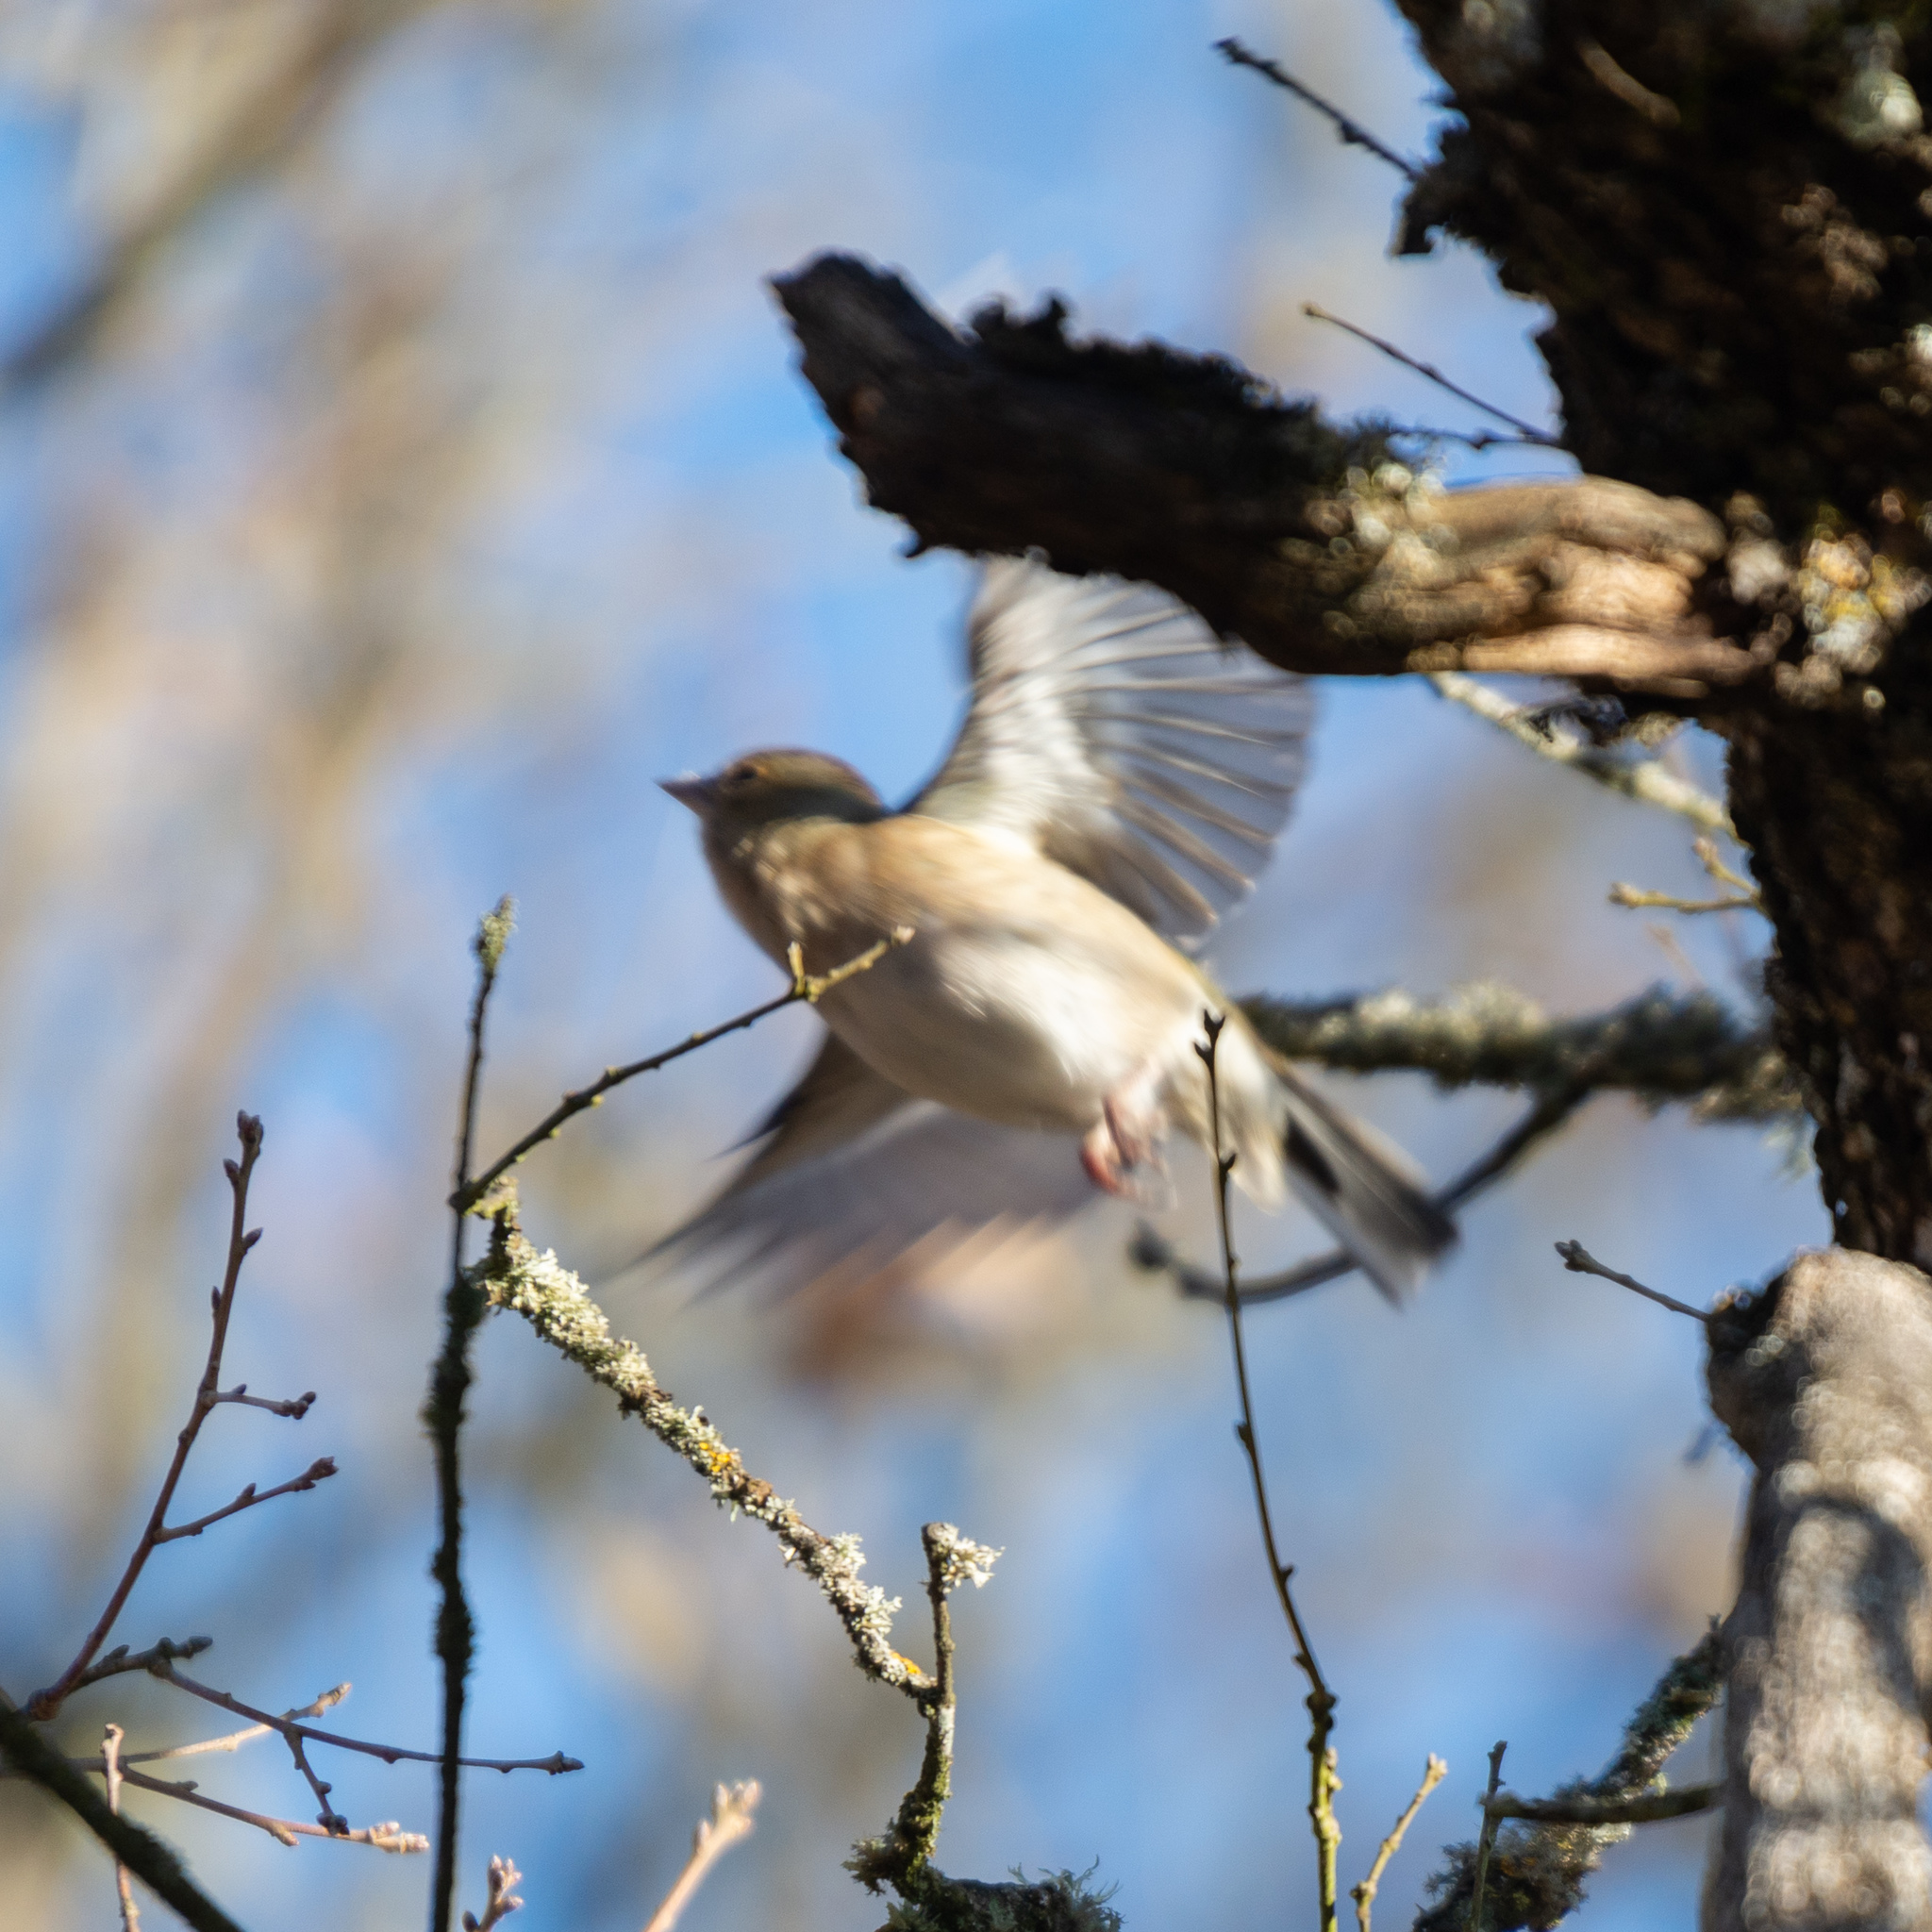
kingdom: Animalia
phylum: Chordata
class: Aves
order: Passeriformes
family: Fringillidae
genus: Fringilla
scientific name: Fringilla coelebs
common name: Common chaffinch
